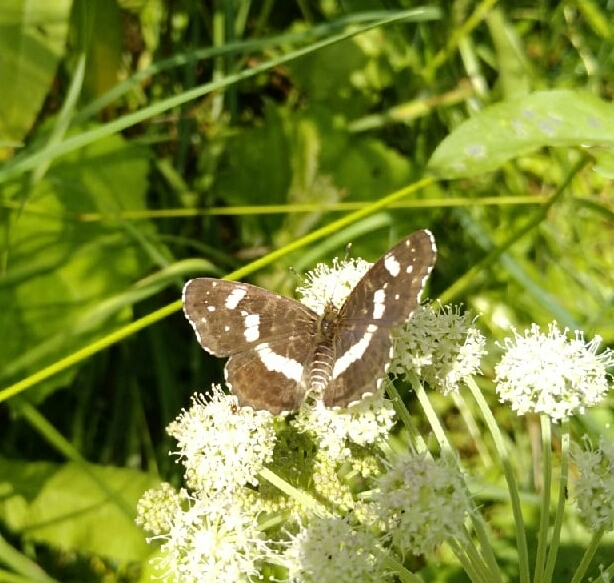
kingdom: Animalia
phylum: Arthropoda
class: Insecta
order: Lepidoptera
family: Nymphalidae
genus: Araschnia
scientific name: Araschnia levana
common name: Map butterfly
